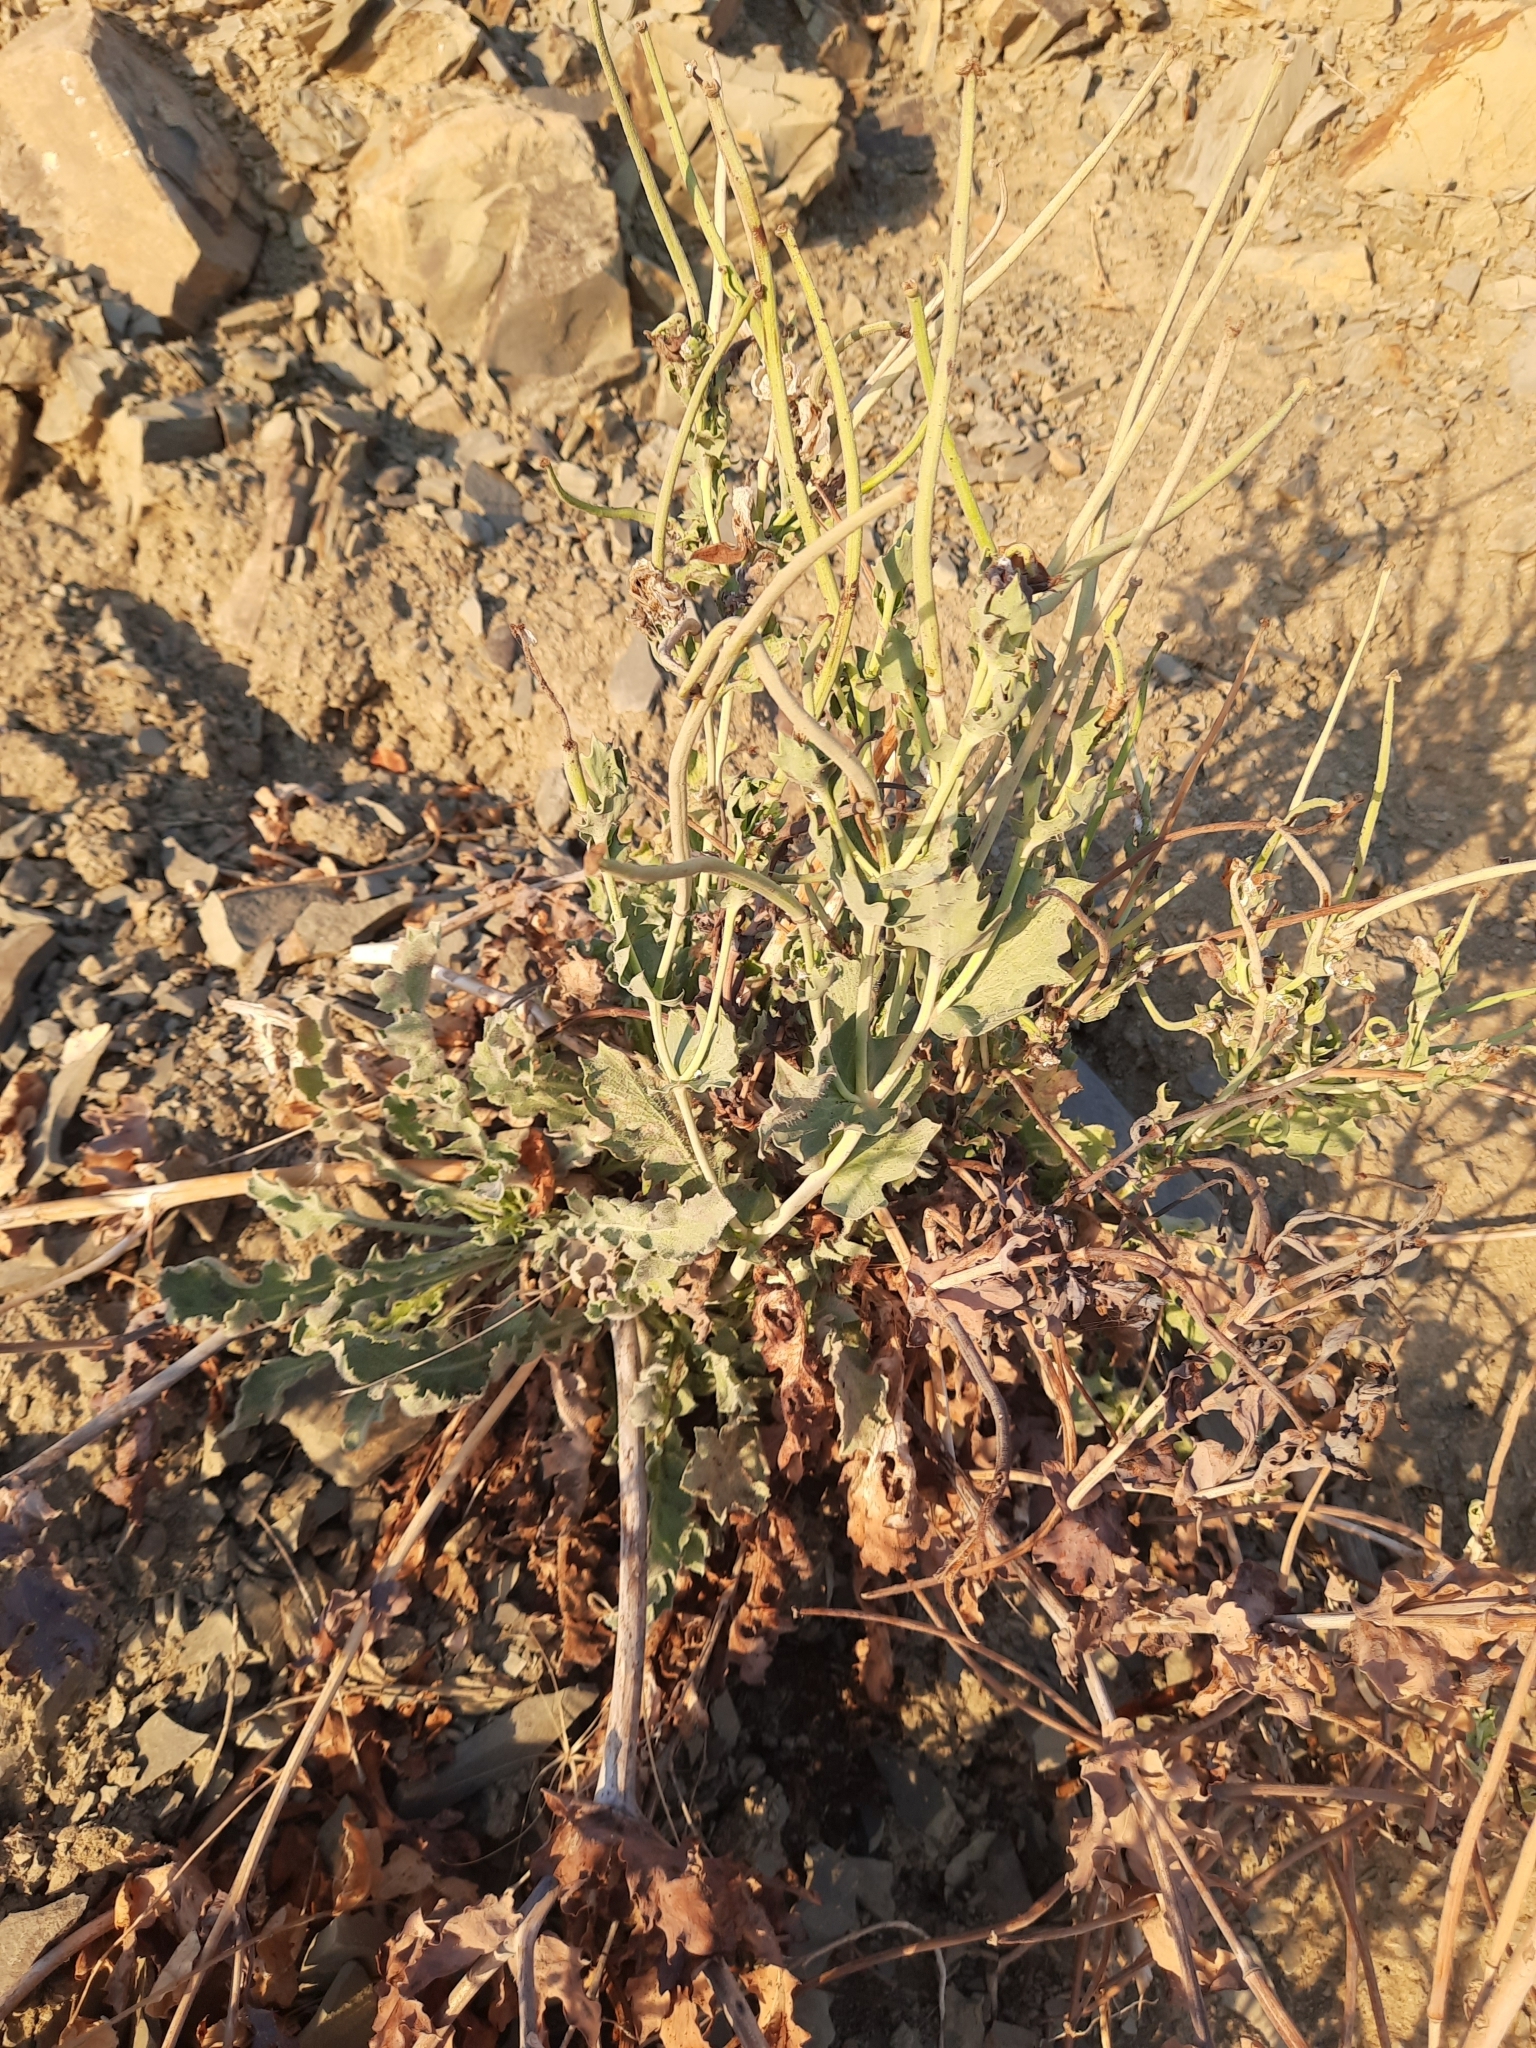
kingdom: Plantae
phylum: Tracheophyta
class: Magnoliopsida
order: Ranunculales
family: Papaveraceae
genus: Glaucium
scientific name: Glaucium flavum
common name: Yellow horned-poppy
